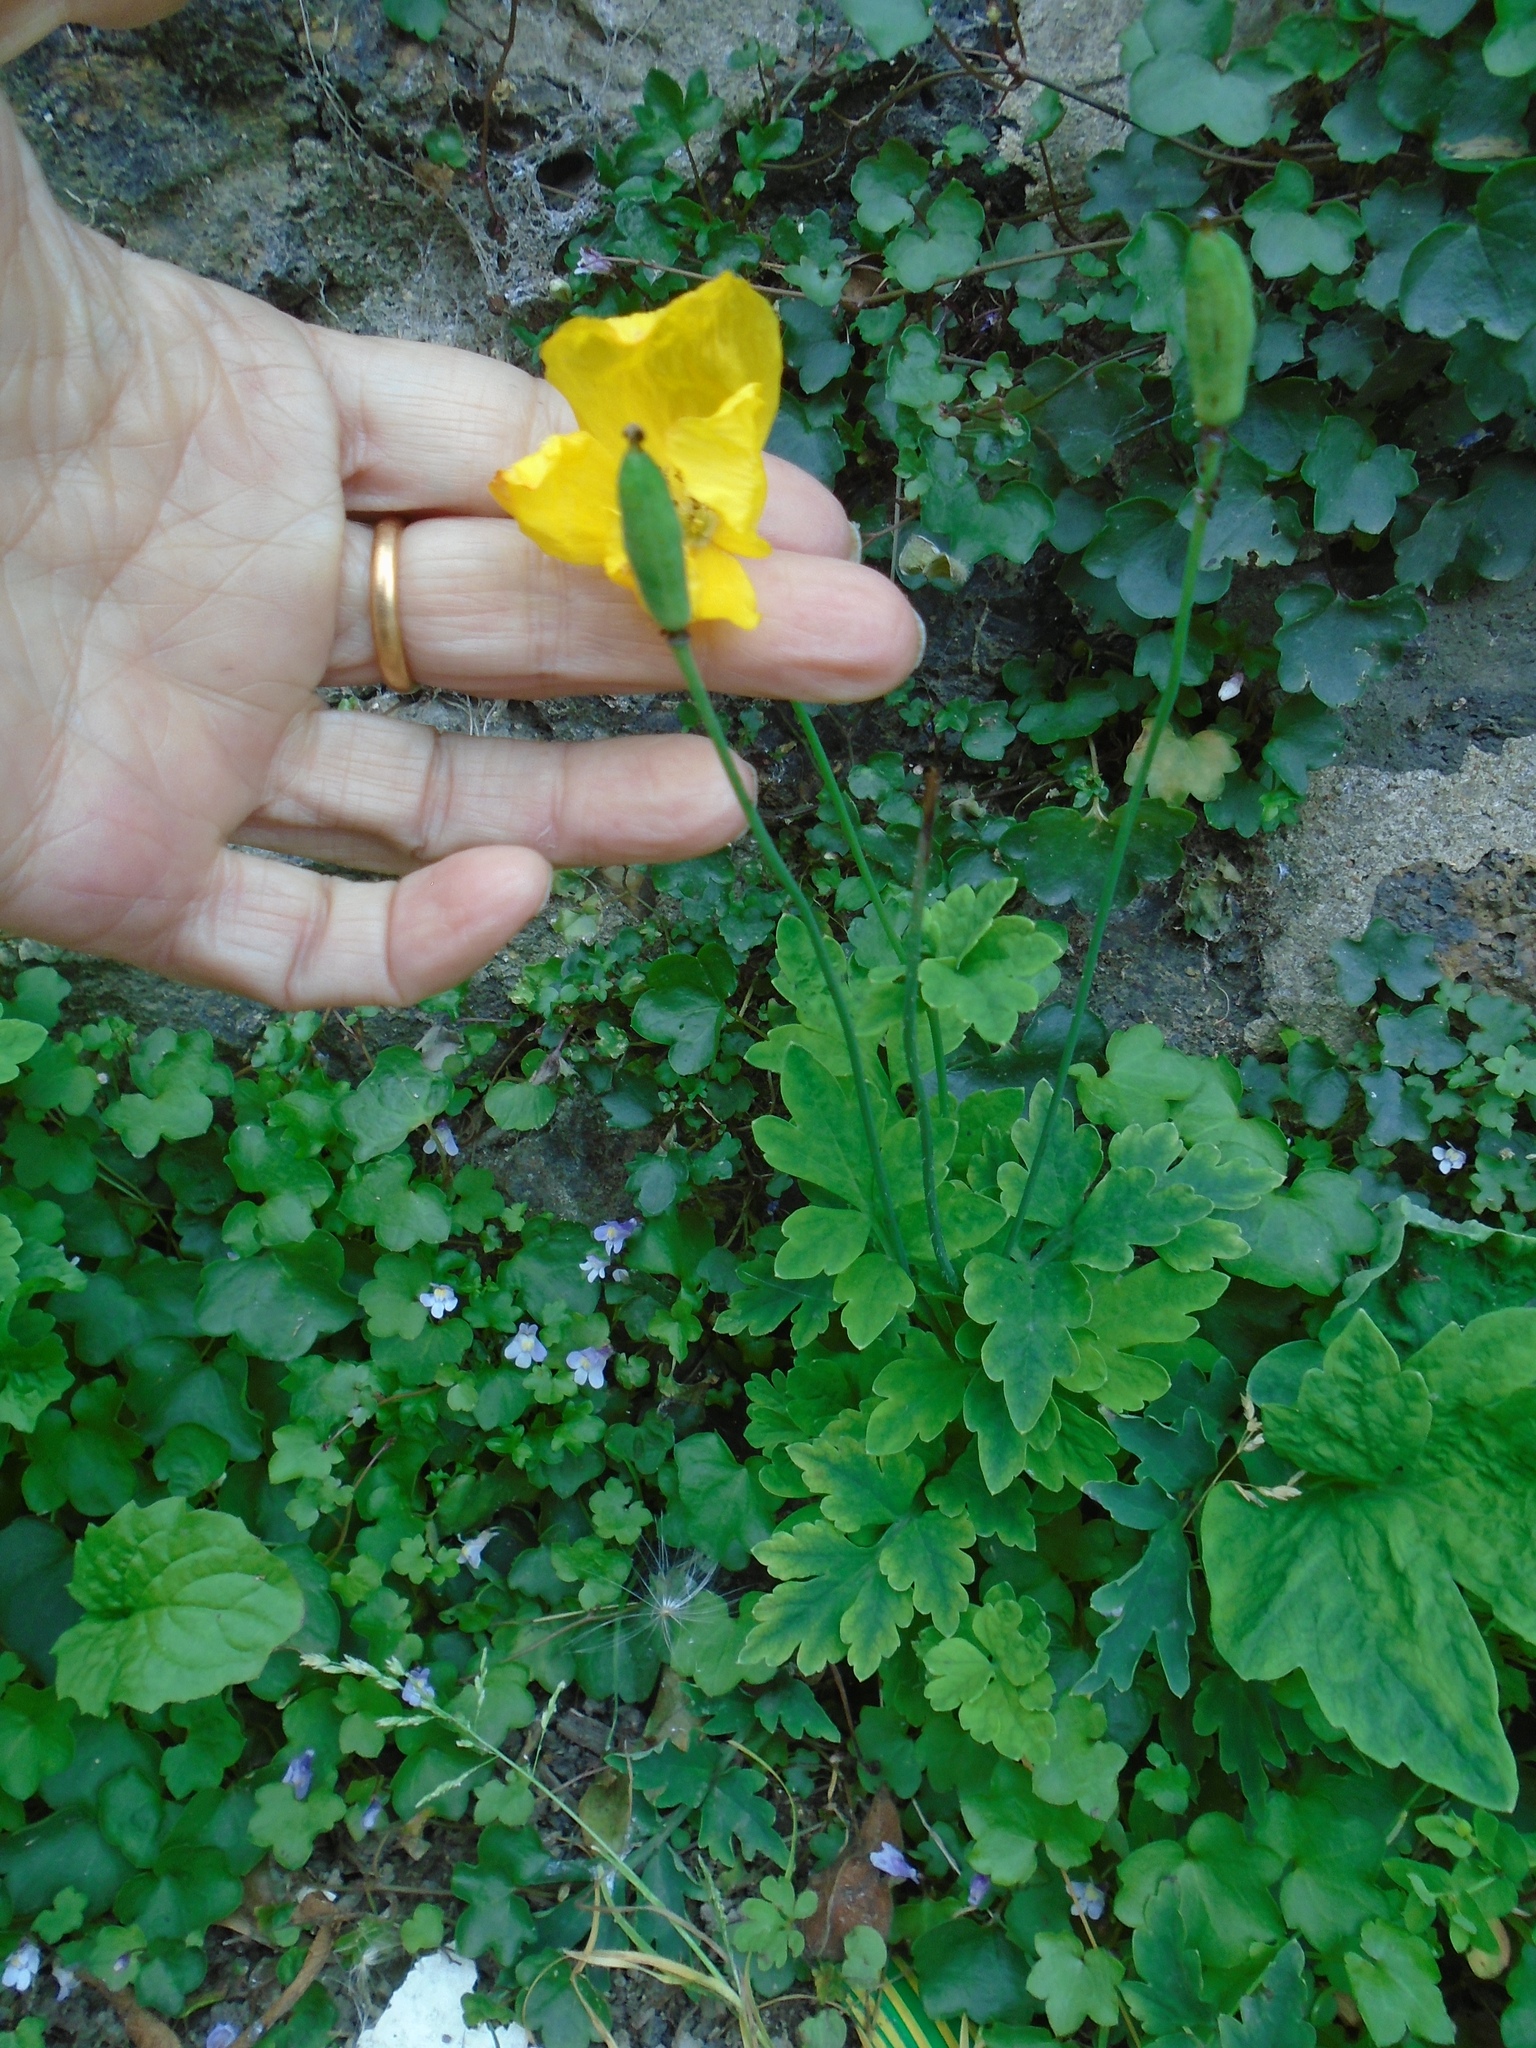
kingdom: Plantae
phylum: Tracheophyta
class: Magnoliopsida
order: Ranunculales
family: Papaveraceae
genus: Papaver
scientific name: Papaver cambricum
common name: Poppy
